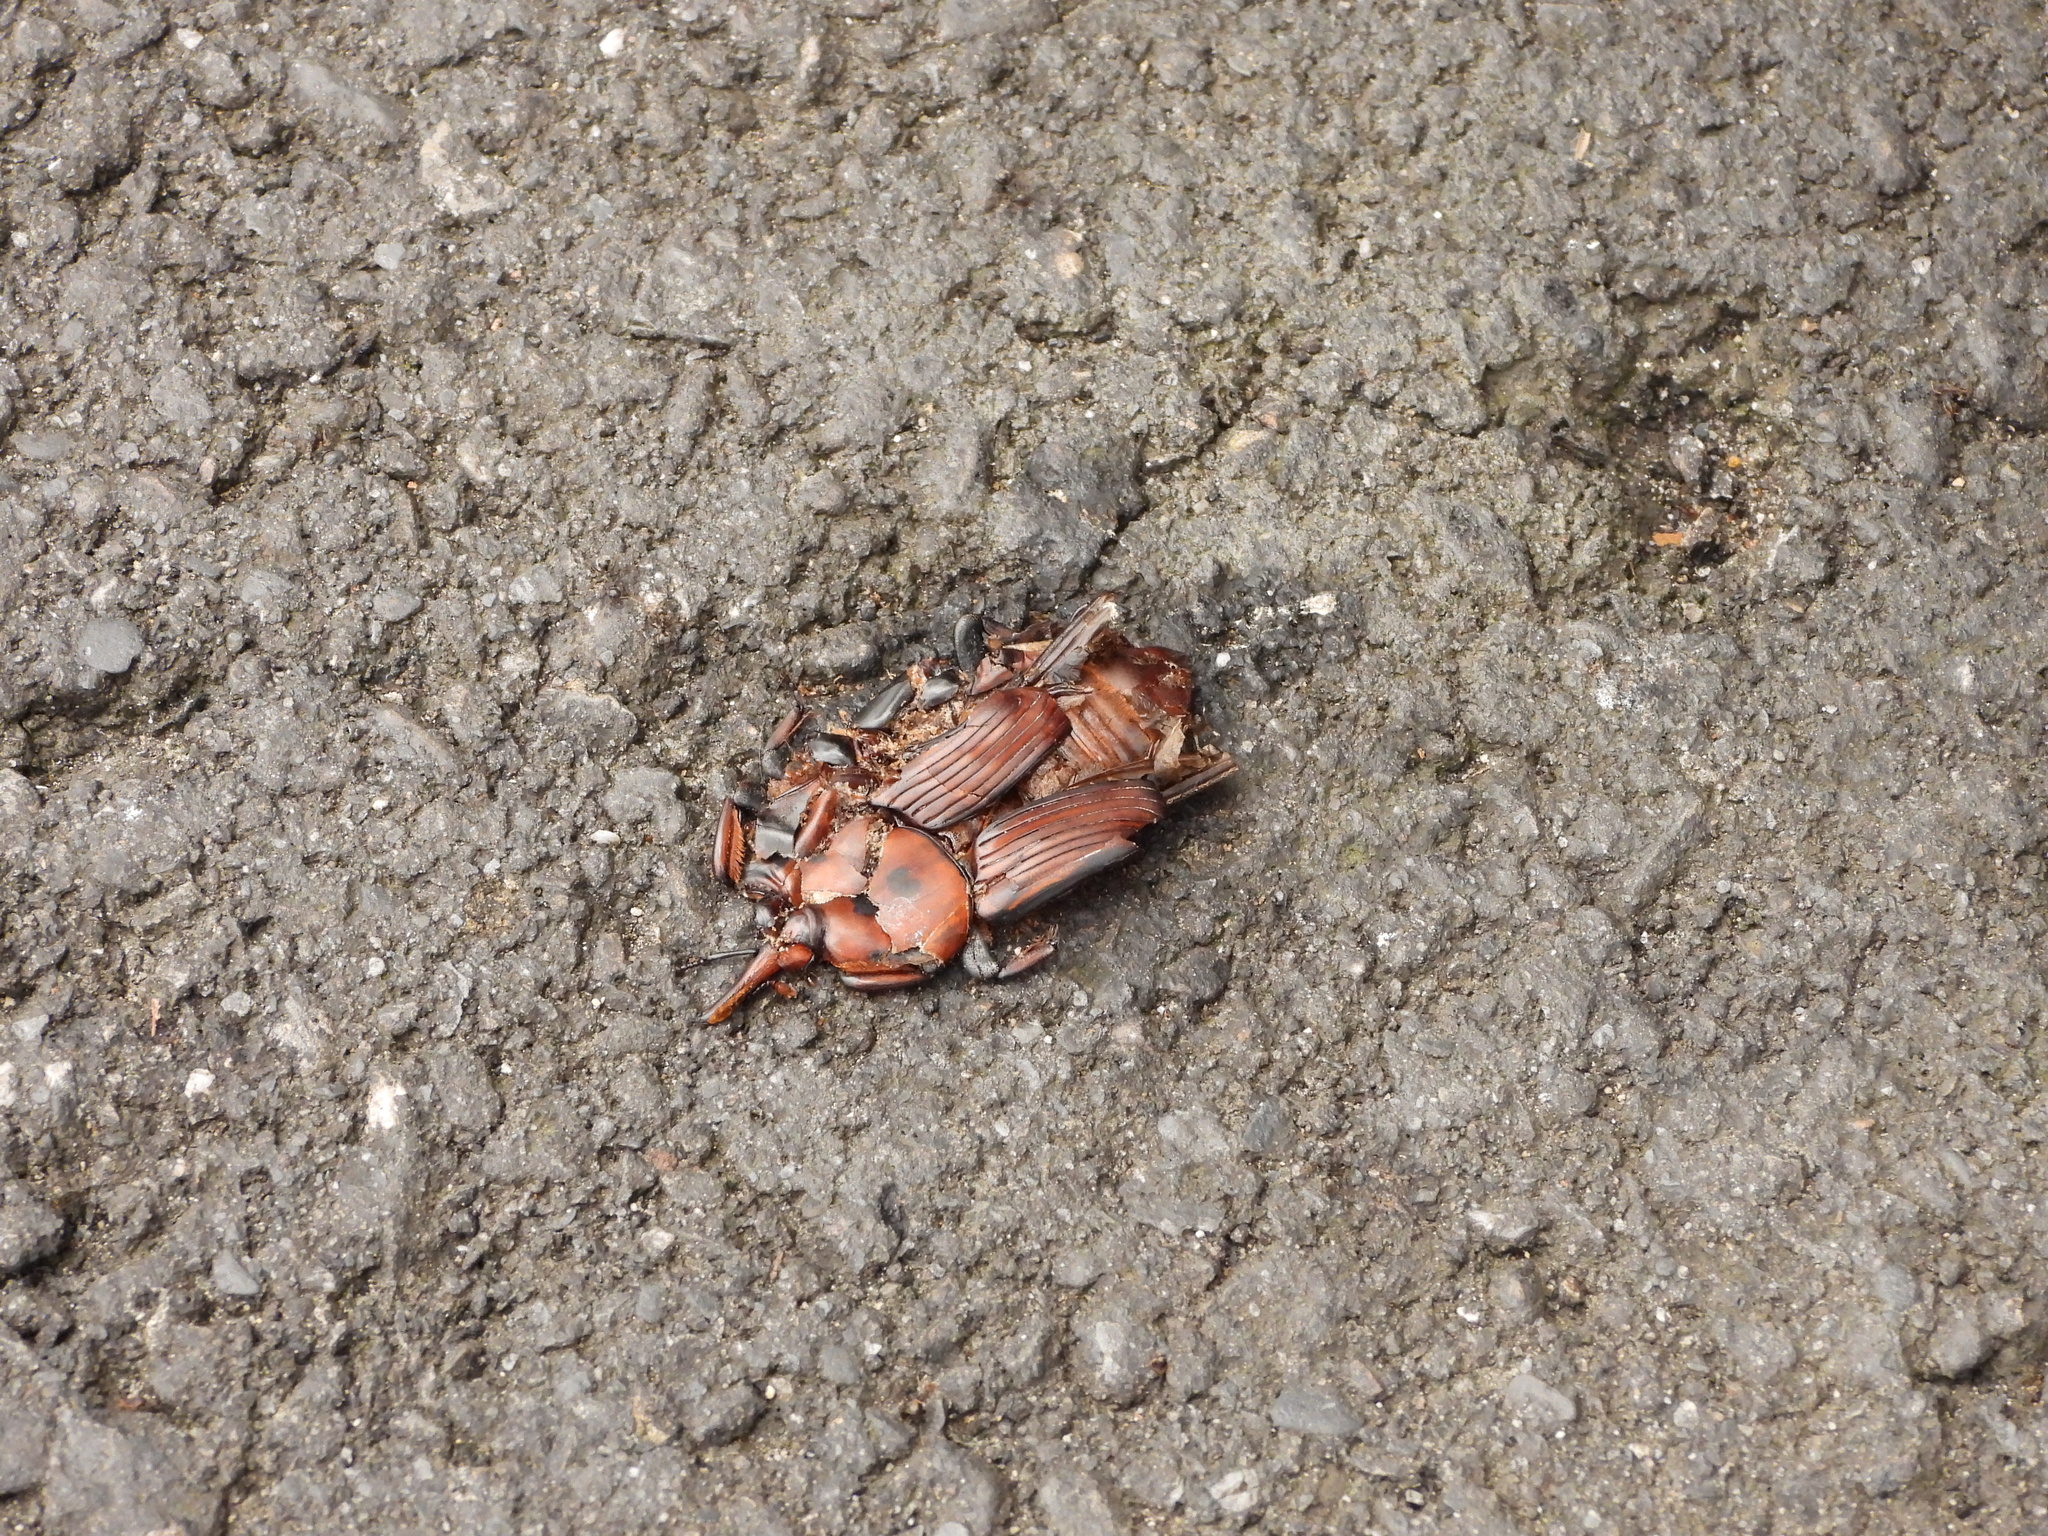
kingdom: Animalia
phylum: Arthropoda
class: Insecta
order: Coleoptera
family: Dryophthoridae
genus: Rhynchophorus
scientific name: Rhynchophorus ferrugineus
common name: Red palm weevil
